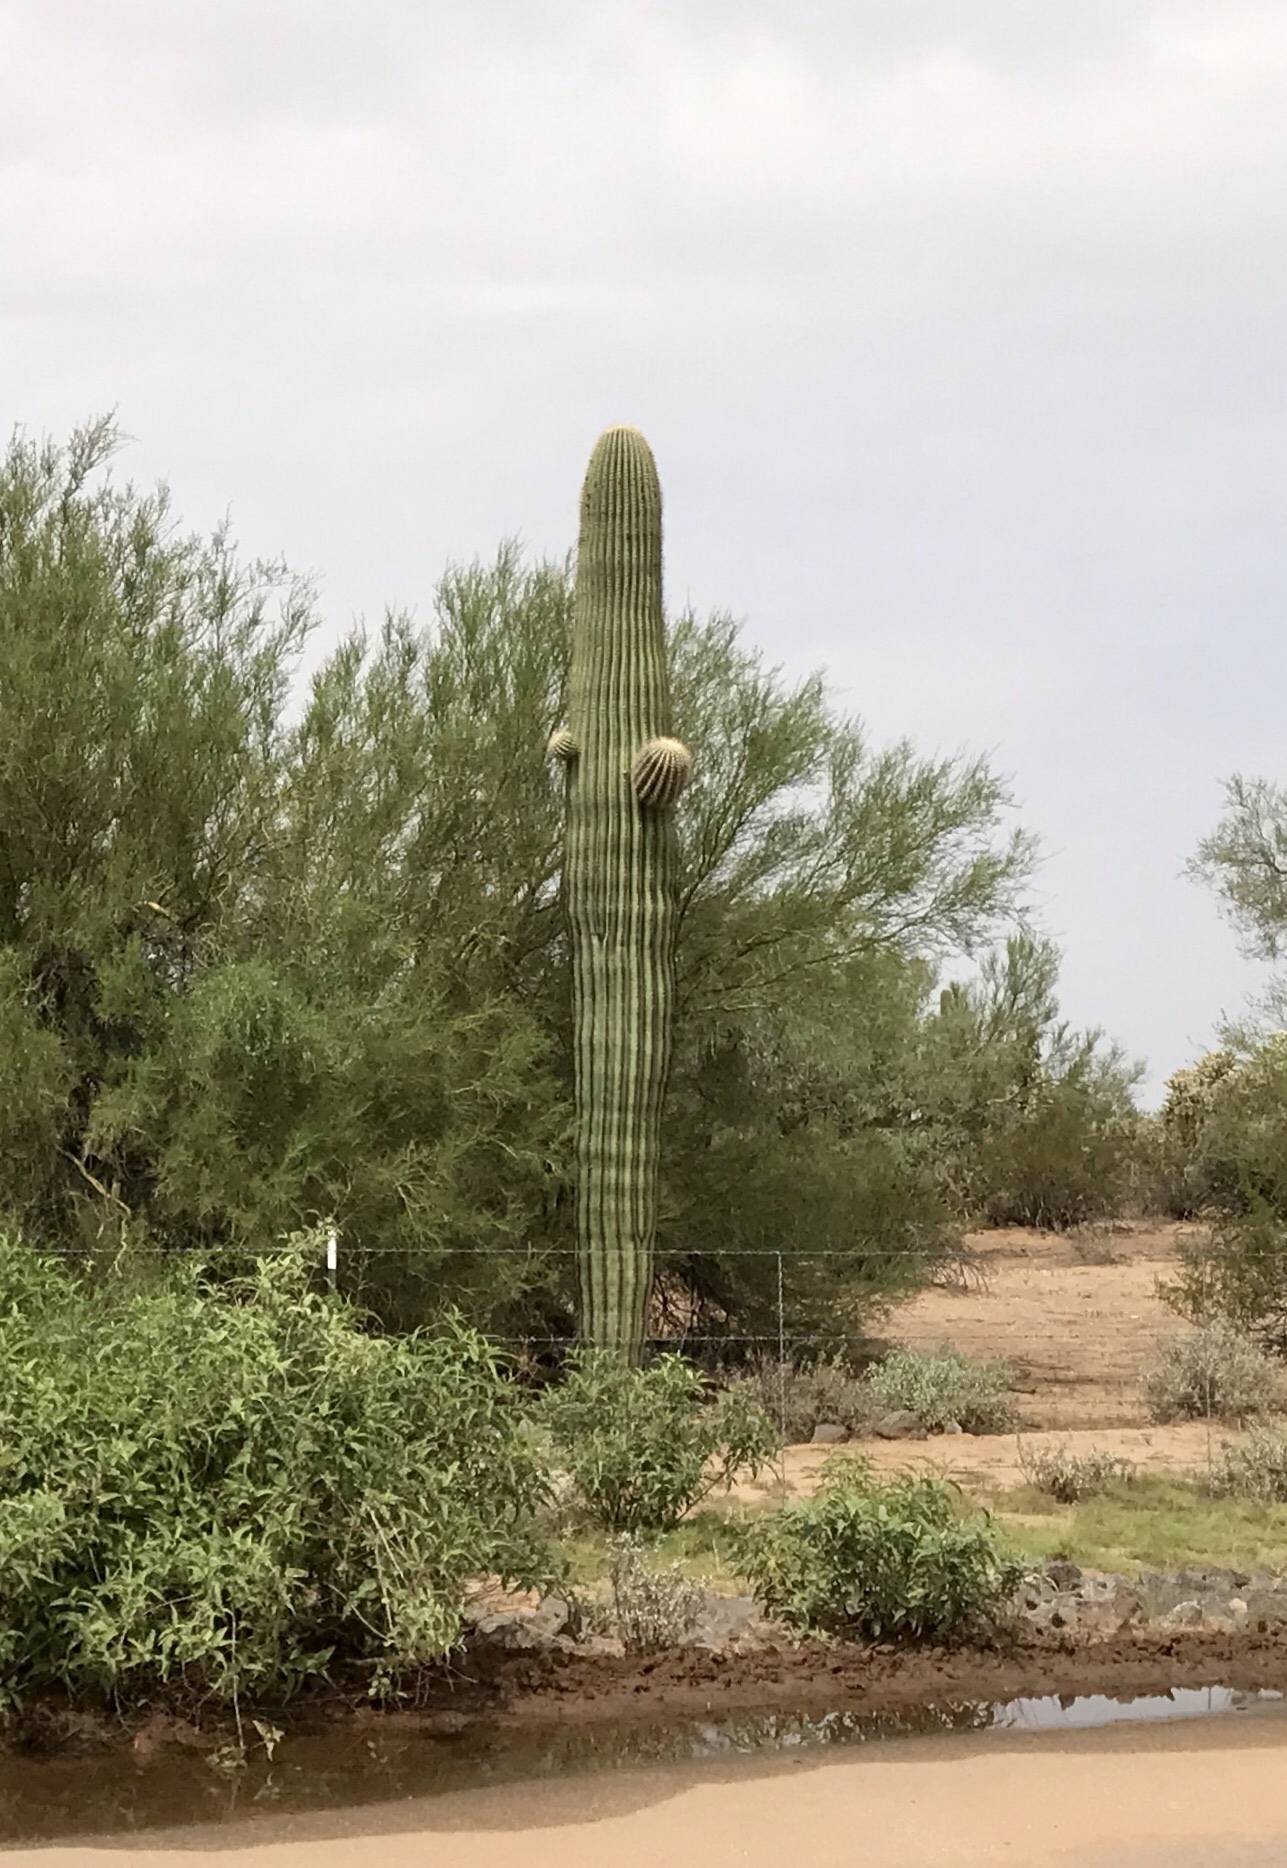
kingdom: Plantae
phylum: Tracheophyta
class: Magnoliopsida
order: Caryophyllales
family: Cactaceae
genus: Carnegiea
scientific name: Carnegiea gigantea
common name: Saguaro
